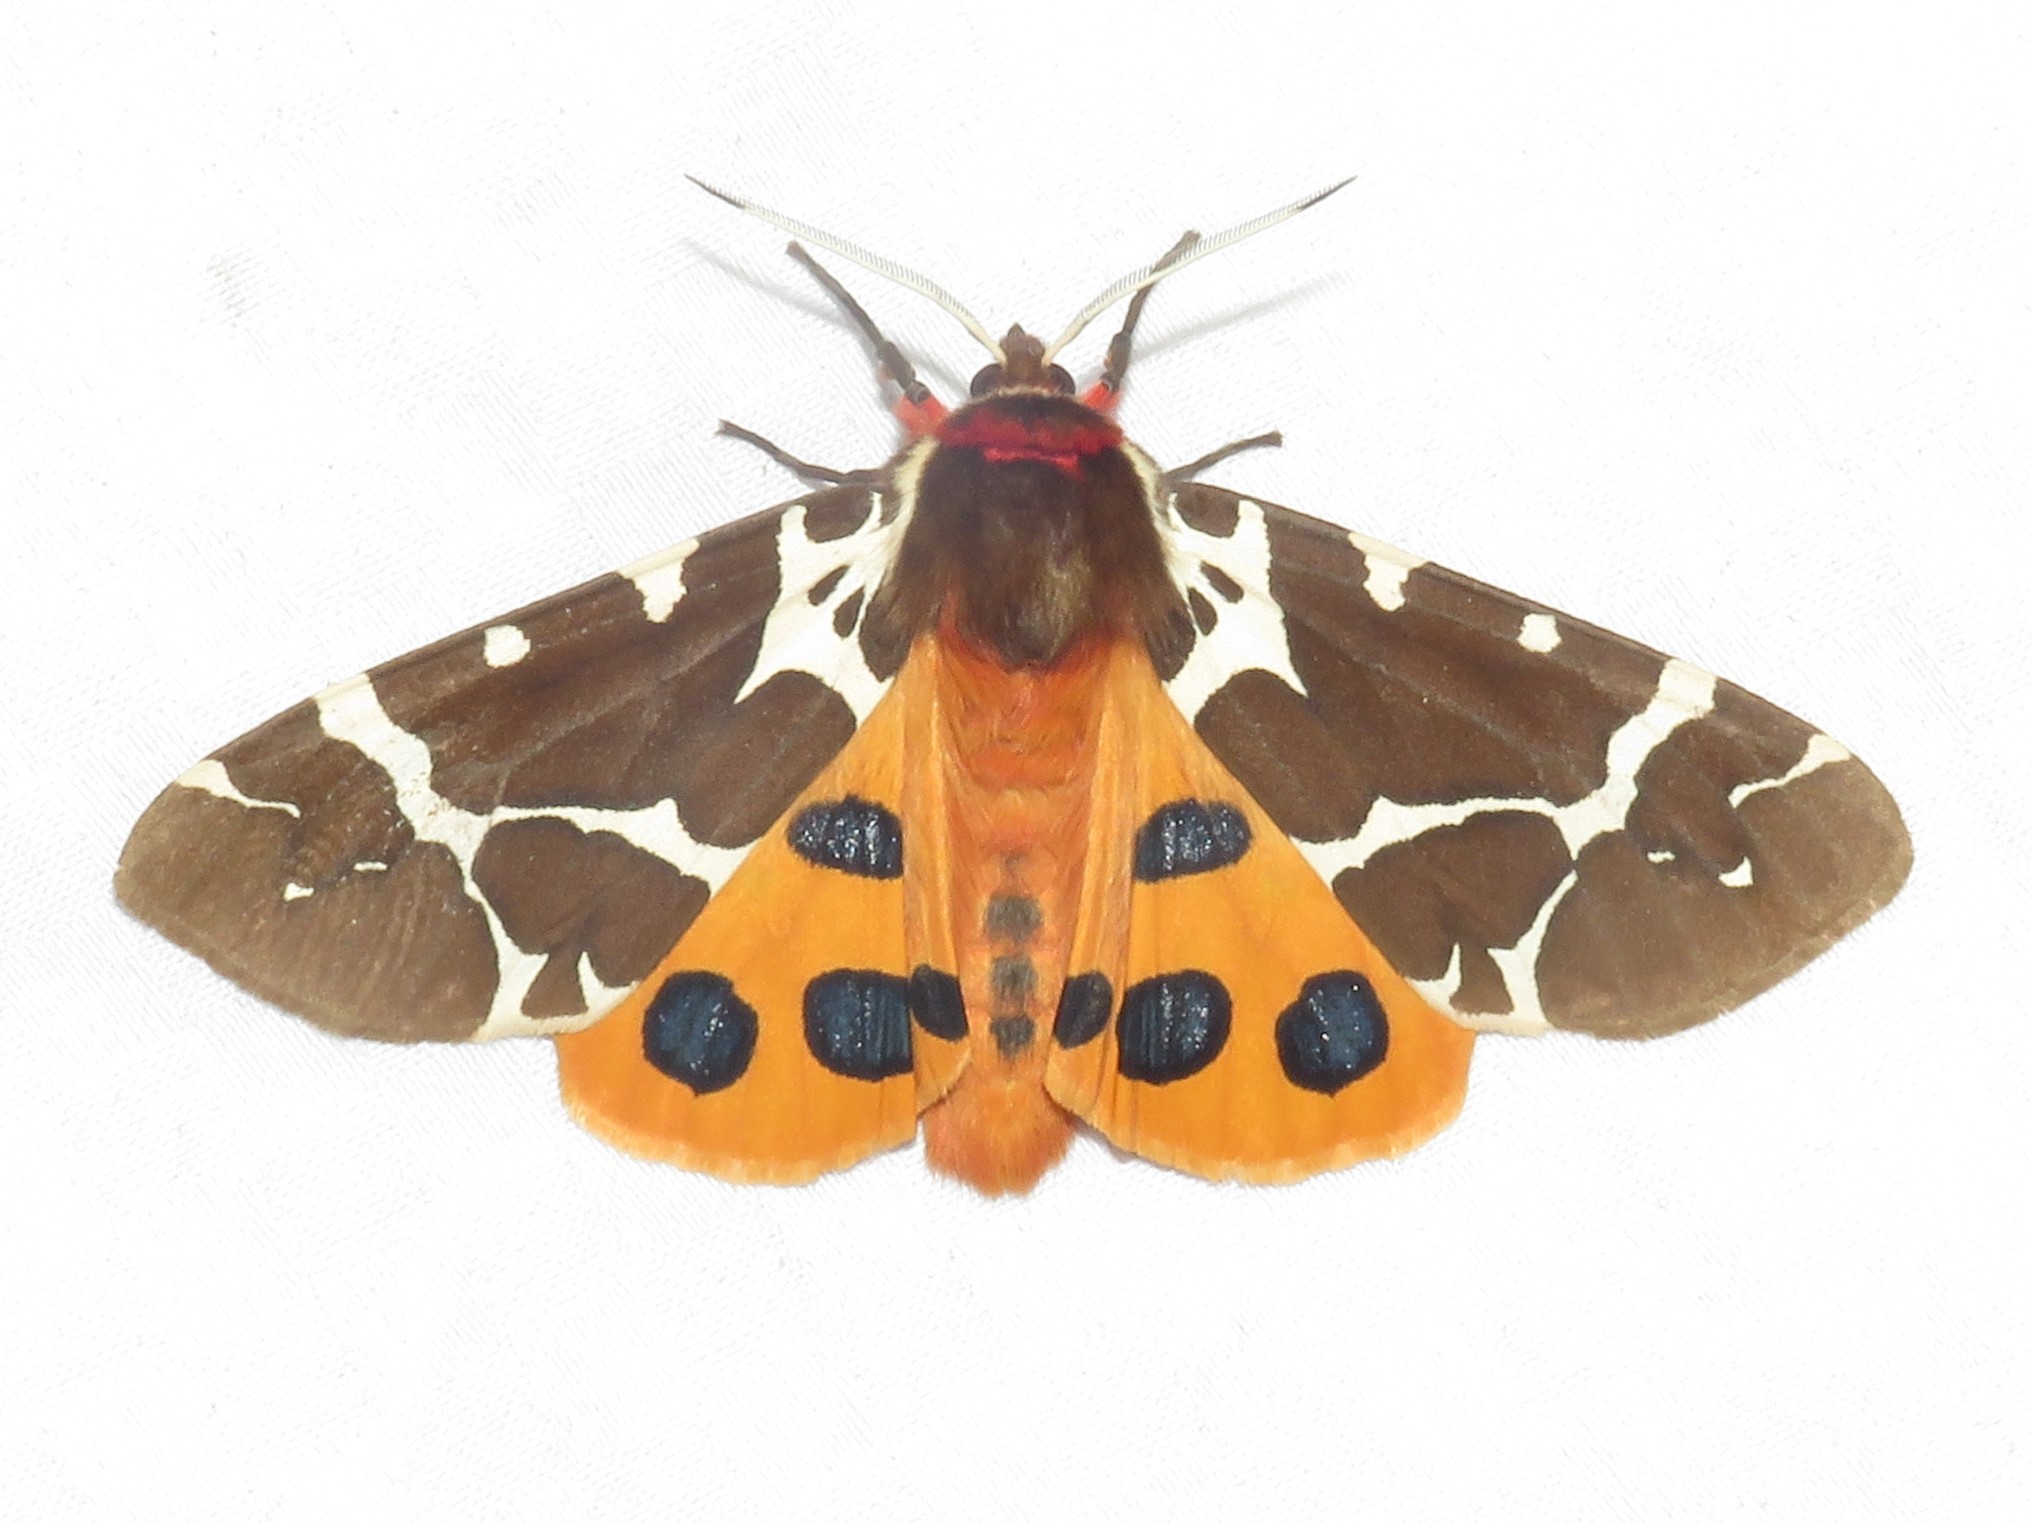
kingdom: Animalia
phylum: Arthropoda
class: Insecta
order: Lepidoptera
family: Erebidae
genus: Arctia
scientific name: Arctia caja
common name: Garden tiger
